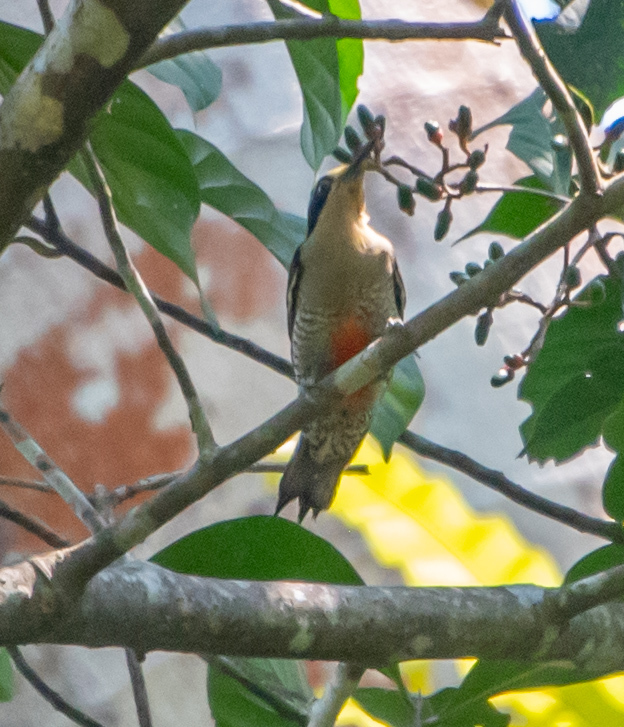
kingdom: Animalia
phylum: Chordata
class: Aves
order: Piciformes
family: Picidae
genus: Melanerpes
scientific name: Melanerpes chrysauchen
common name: Golden-naped woodpecker
